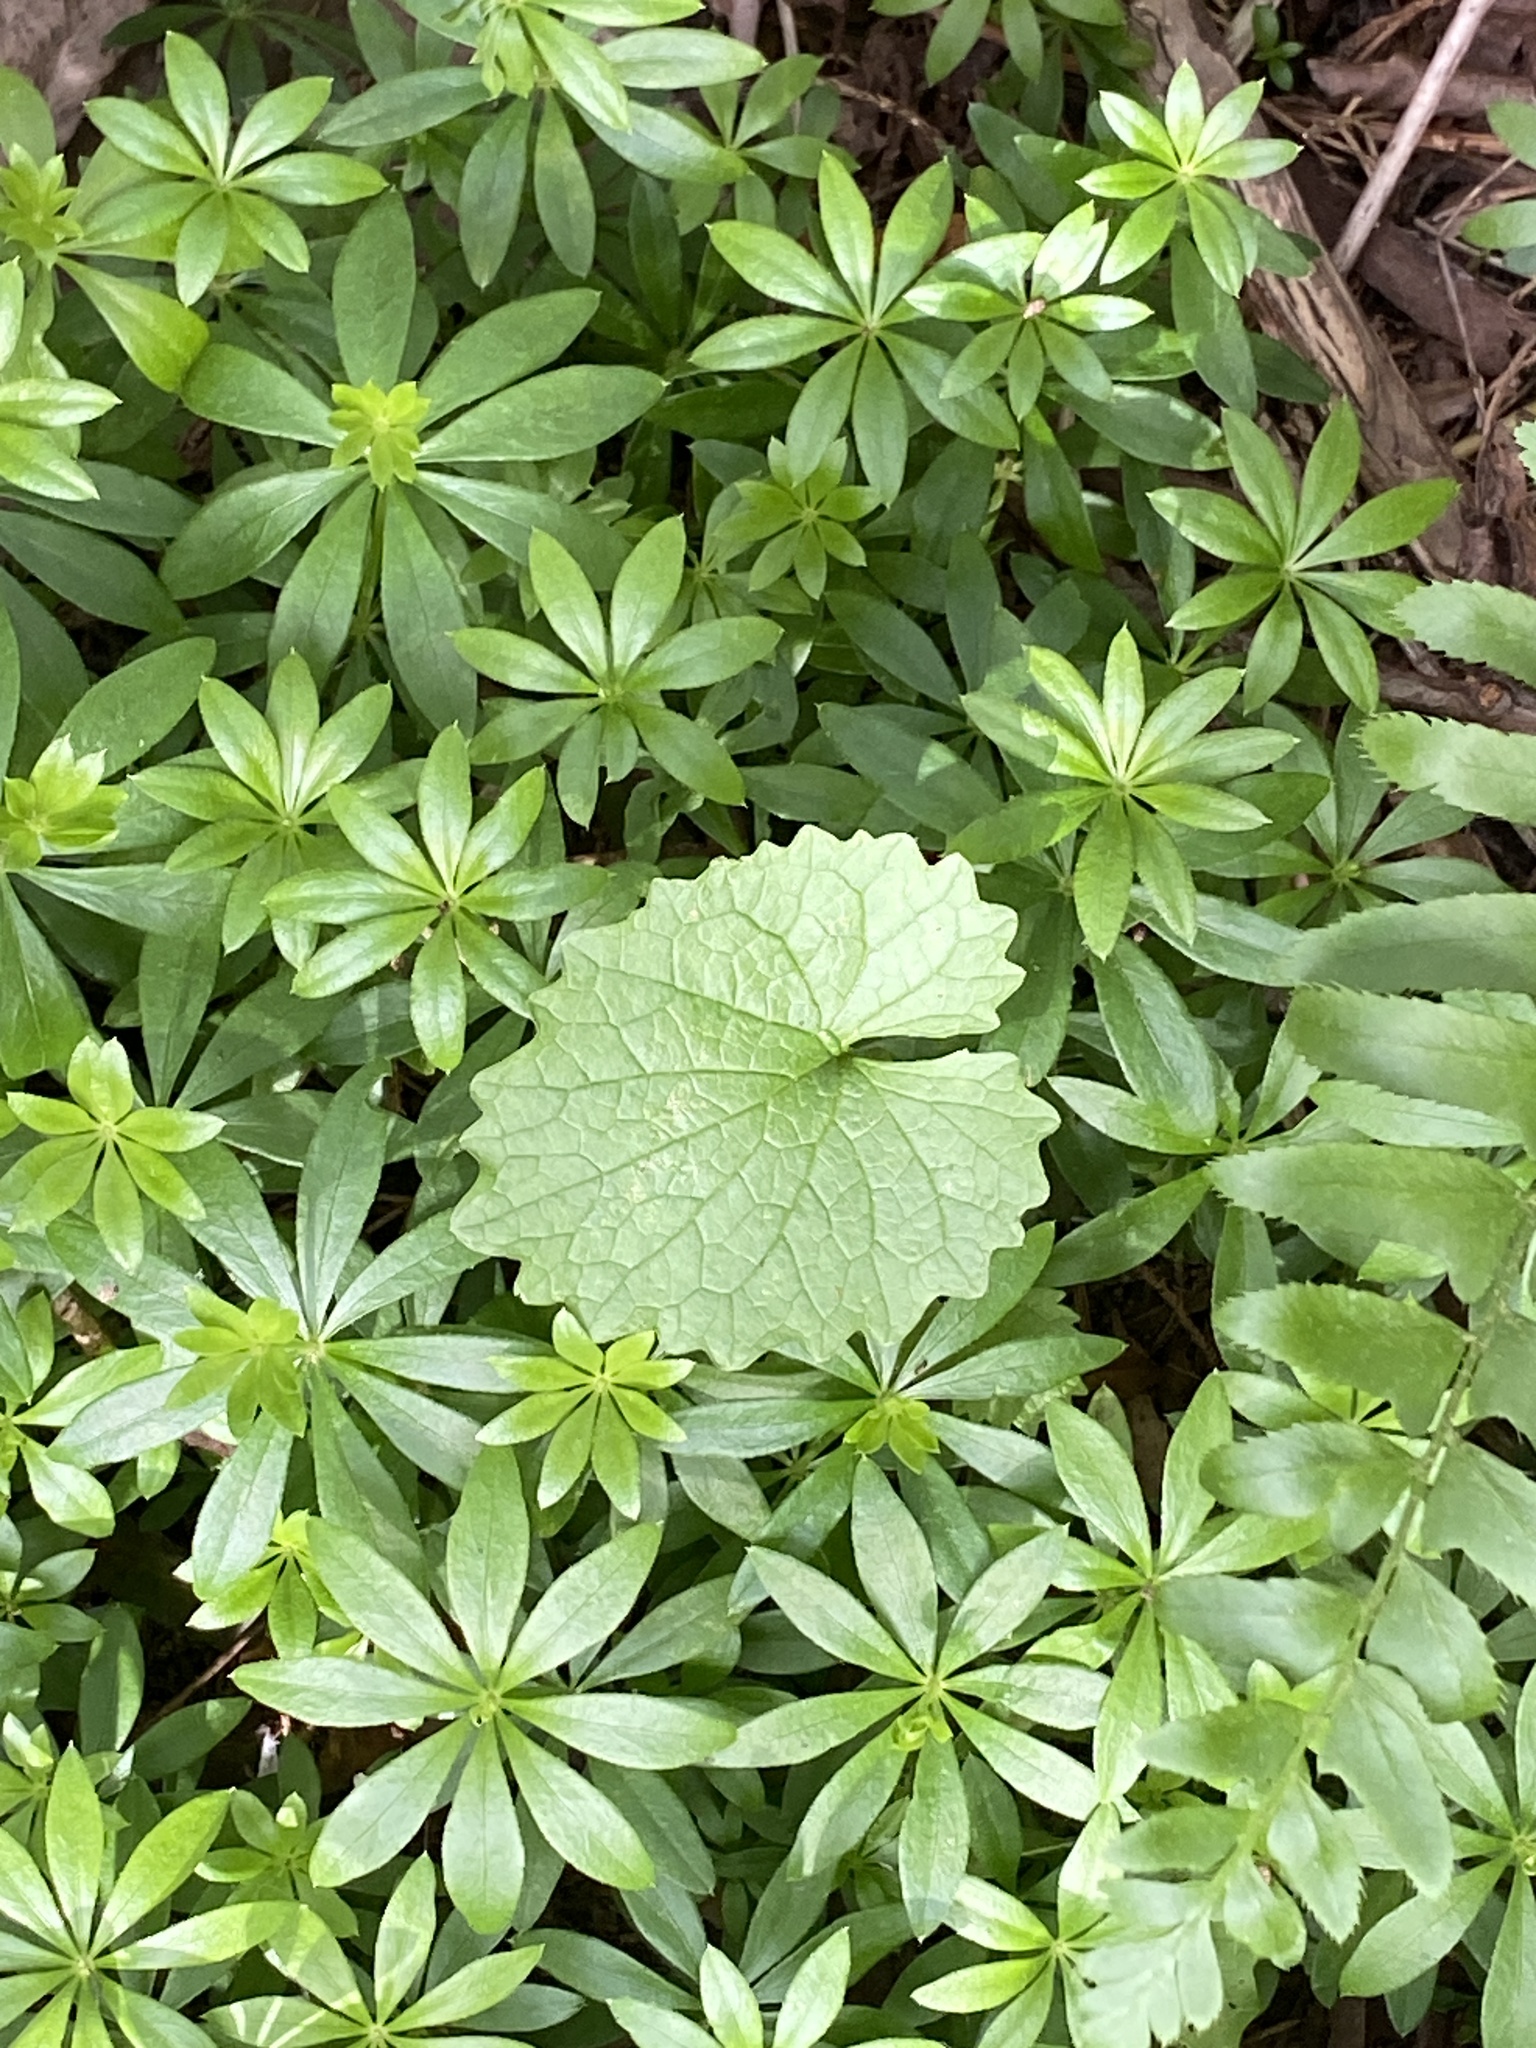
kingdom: Plantae
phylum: Tracheophyta
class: Magnoliopsida
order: Brassicales
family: Brassicaceae
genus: Alliaria
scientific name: Alliaria petiolata
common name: Garlic mustard
